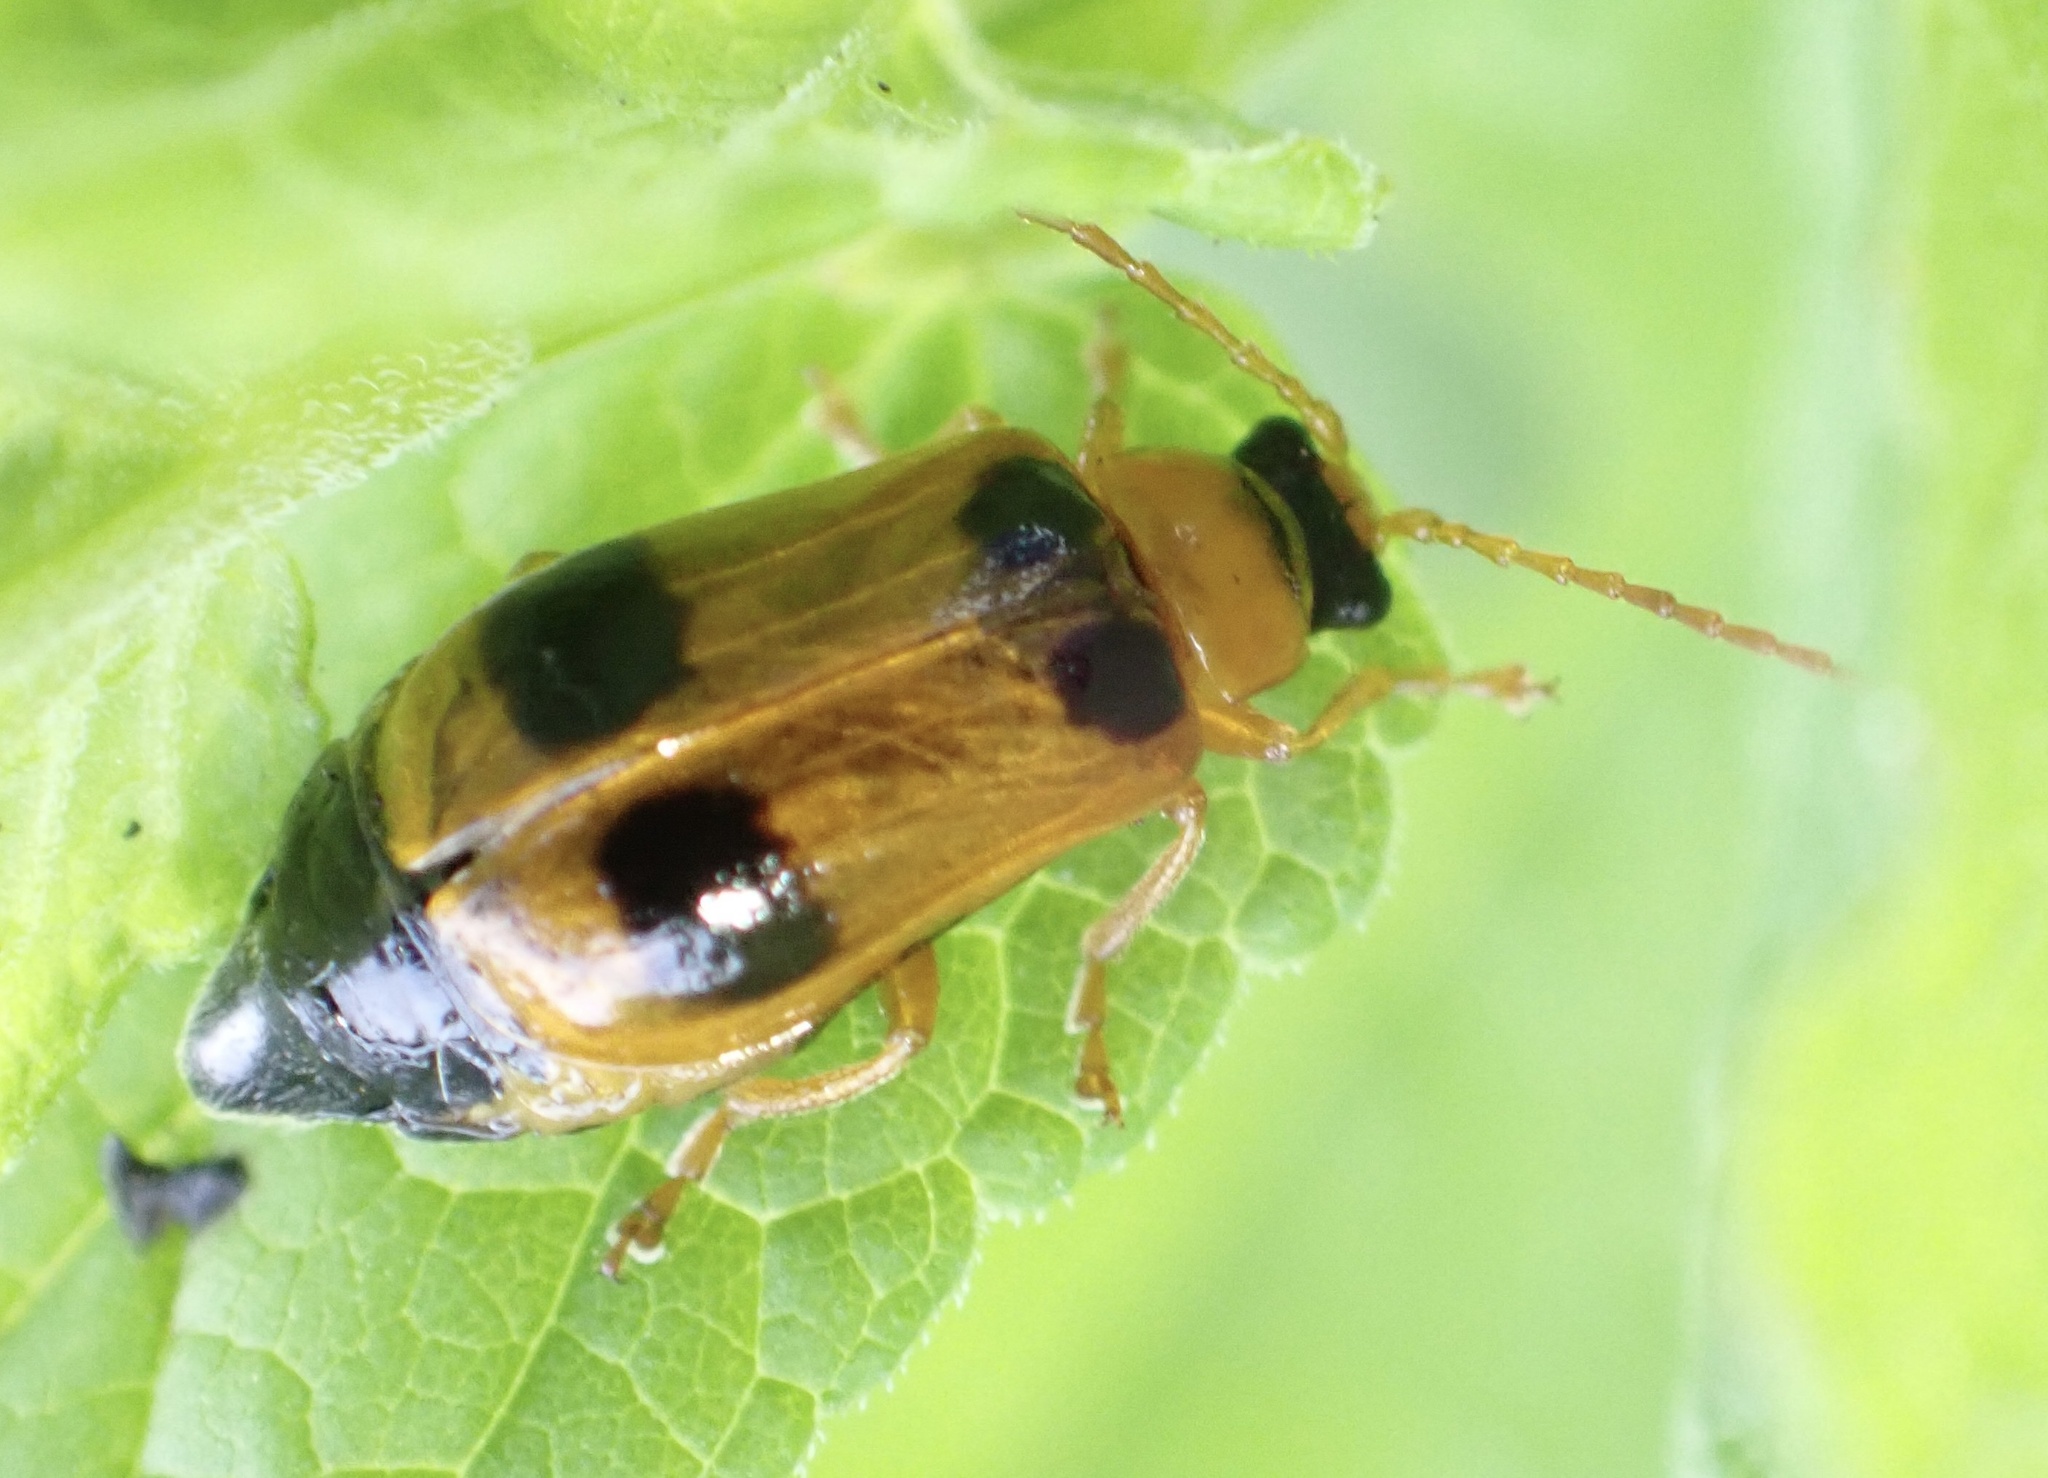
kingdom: Animalia
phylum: Arthropoda
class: Insecta
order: Coleoptera
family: Chrysomelidae
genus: Phyllobrotica
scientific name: Phyllobrotica quadrimaculata
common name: Skullcap leaf beetle
